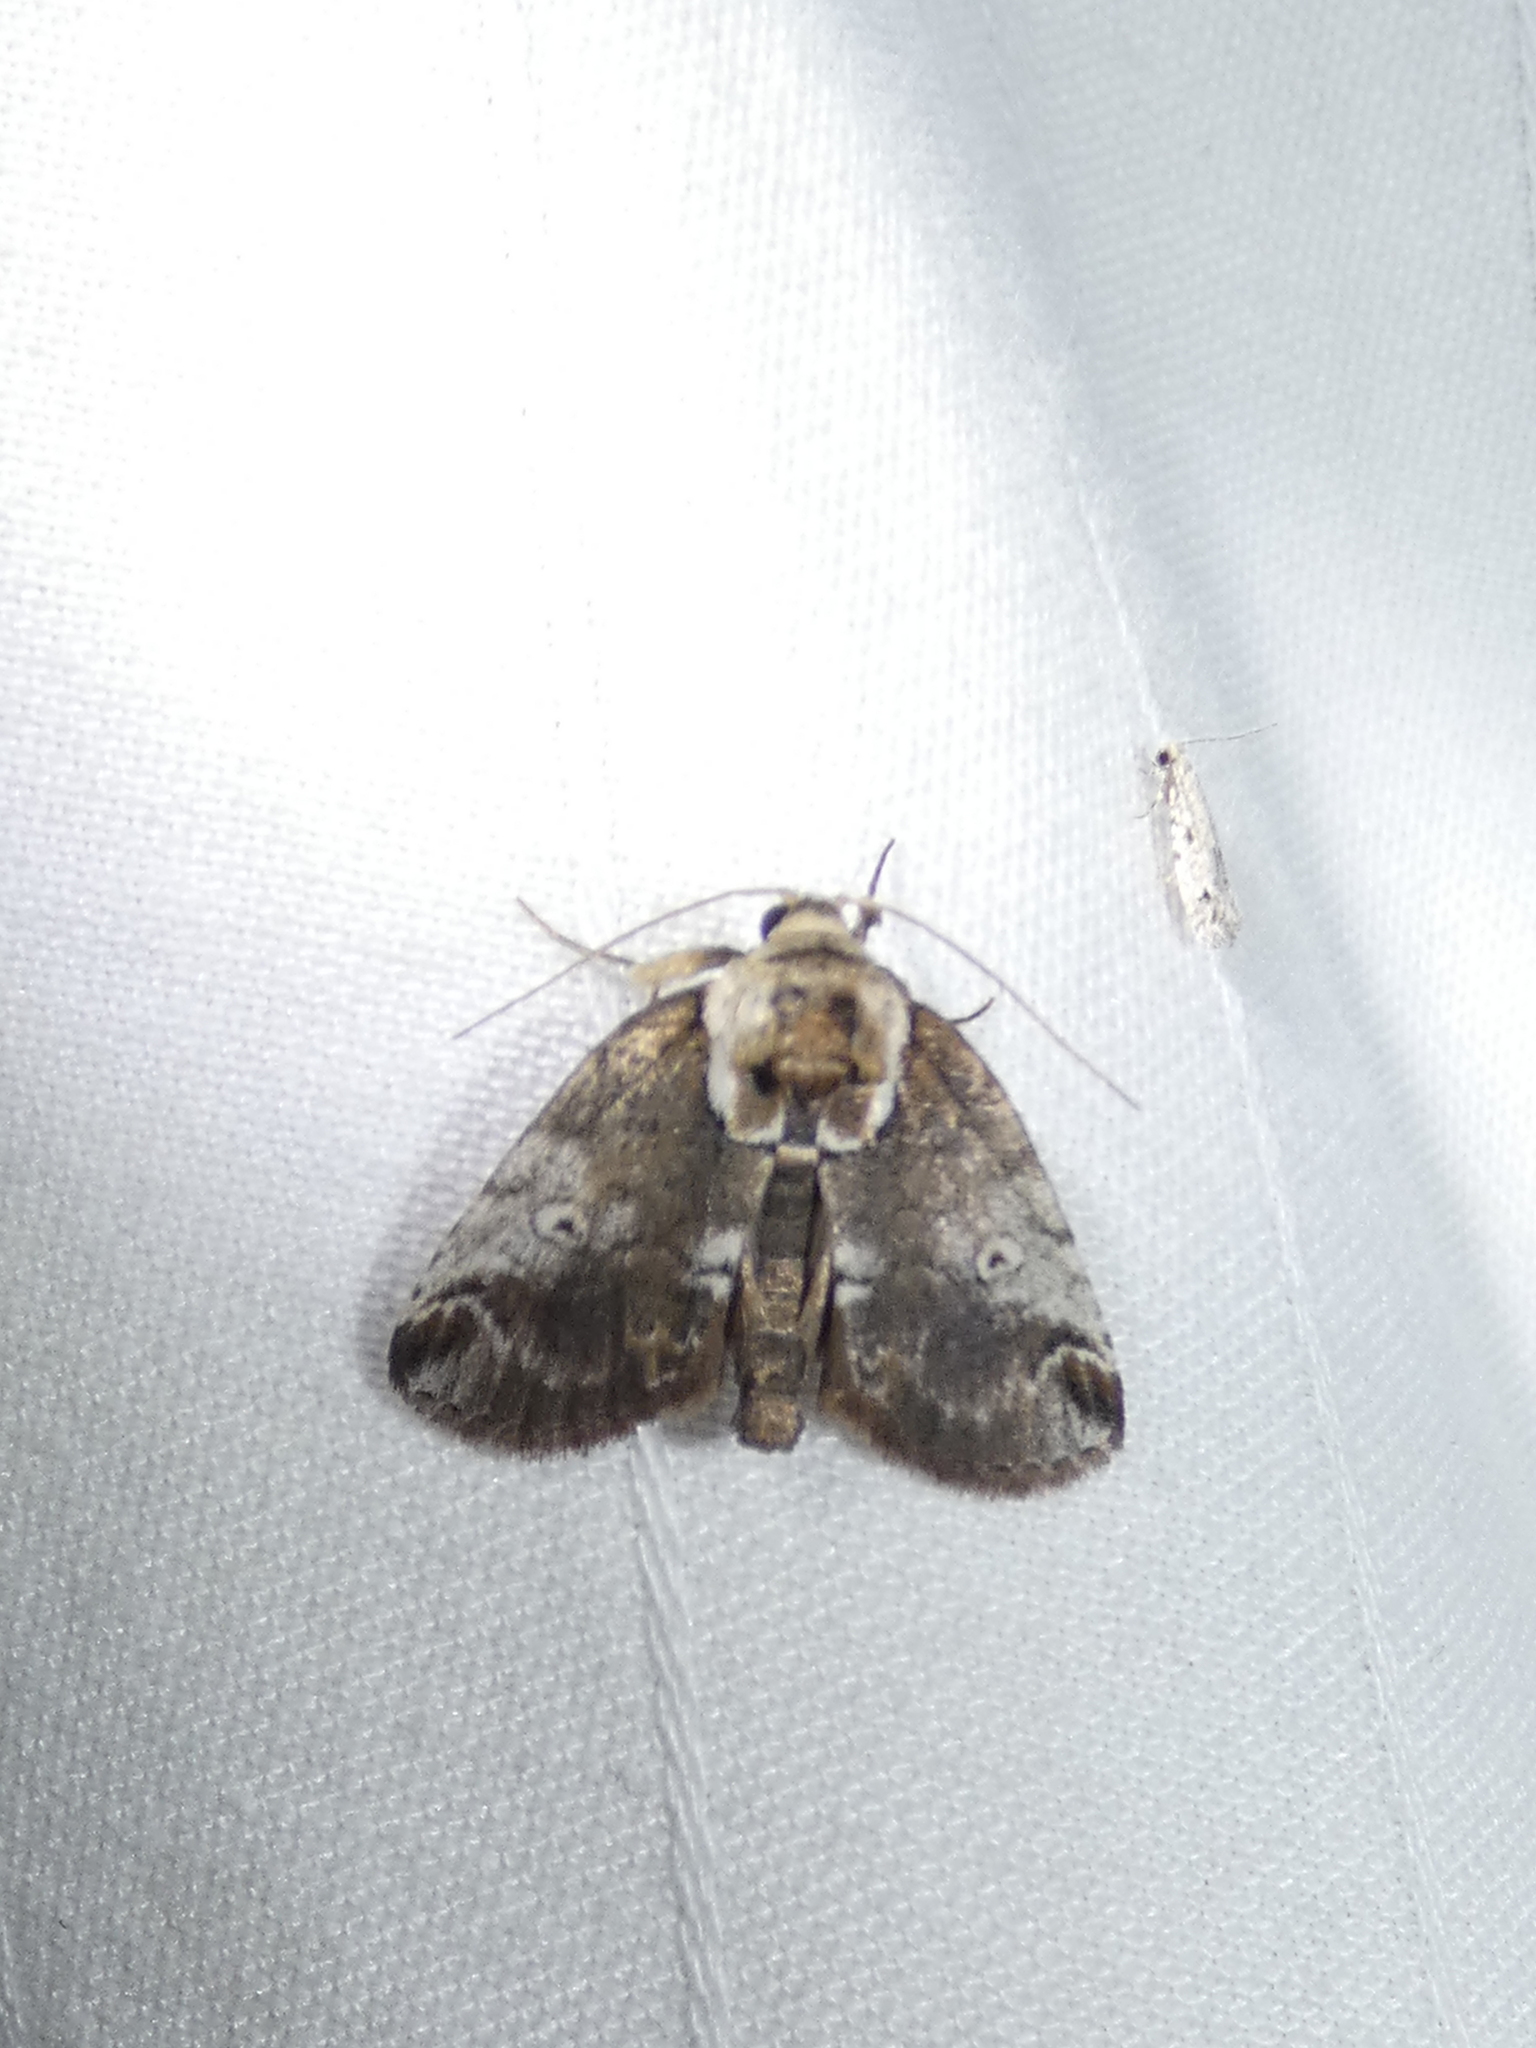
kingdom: Animalia
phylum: Arthropoda
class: Insecta
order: Lepidoptera
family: Nolidae
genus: Baileya
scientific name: Baileya ophthalmica
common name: Eyed baileya moth
